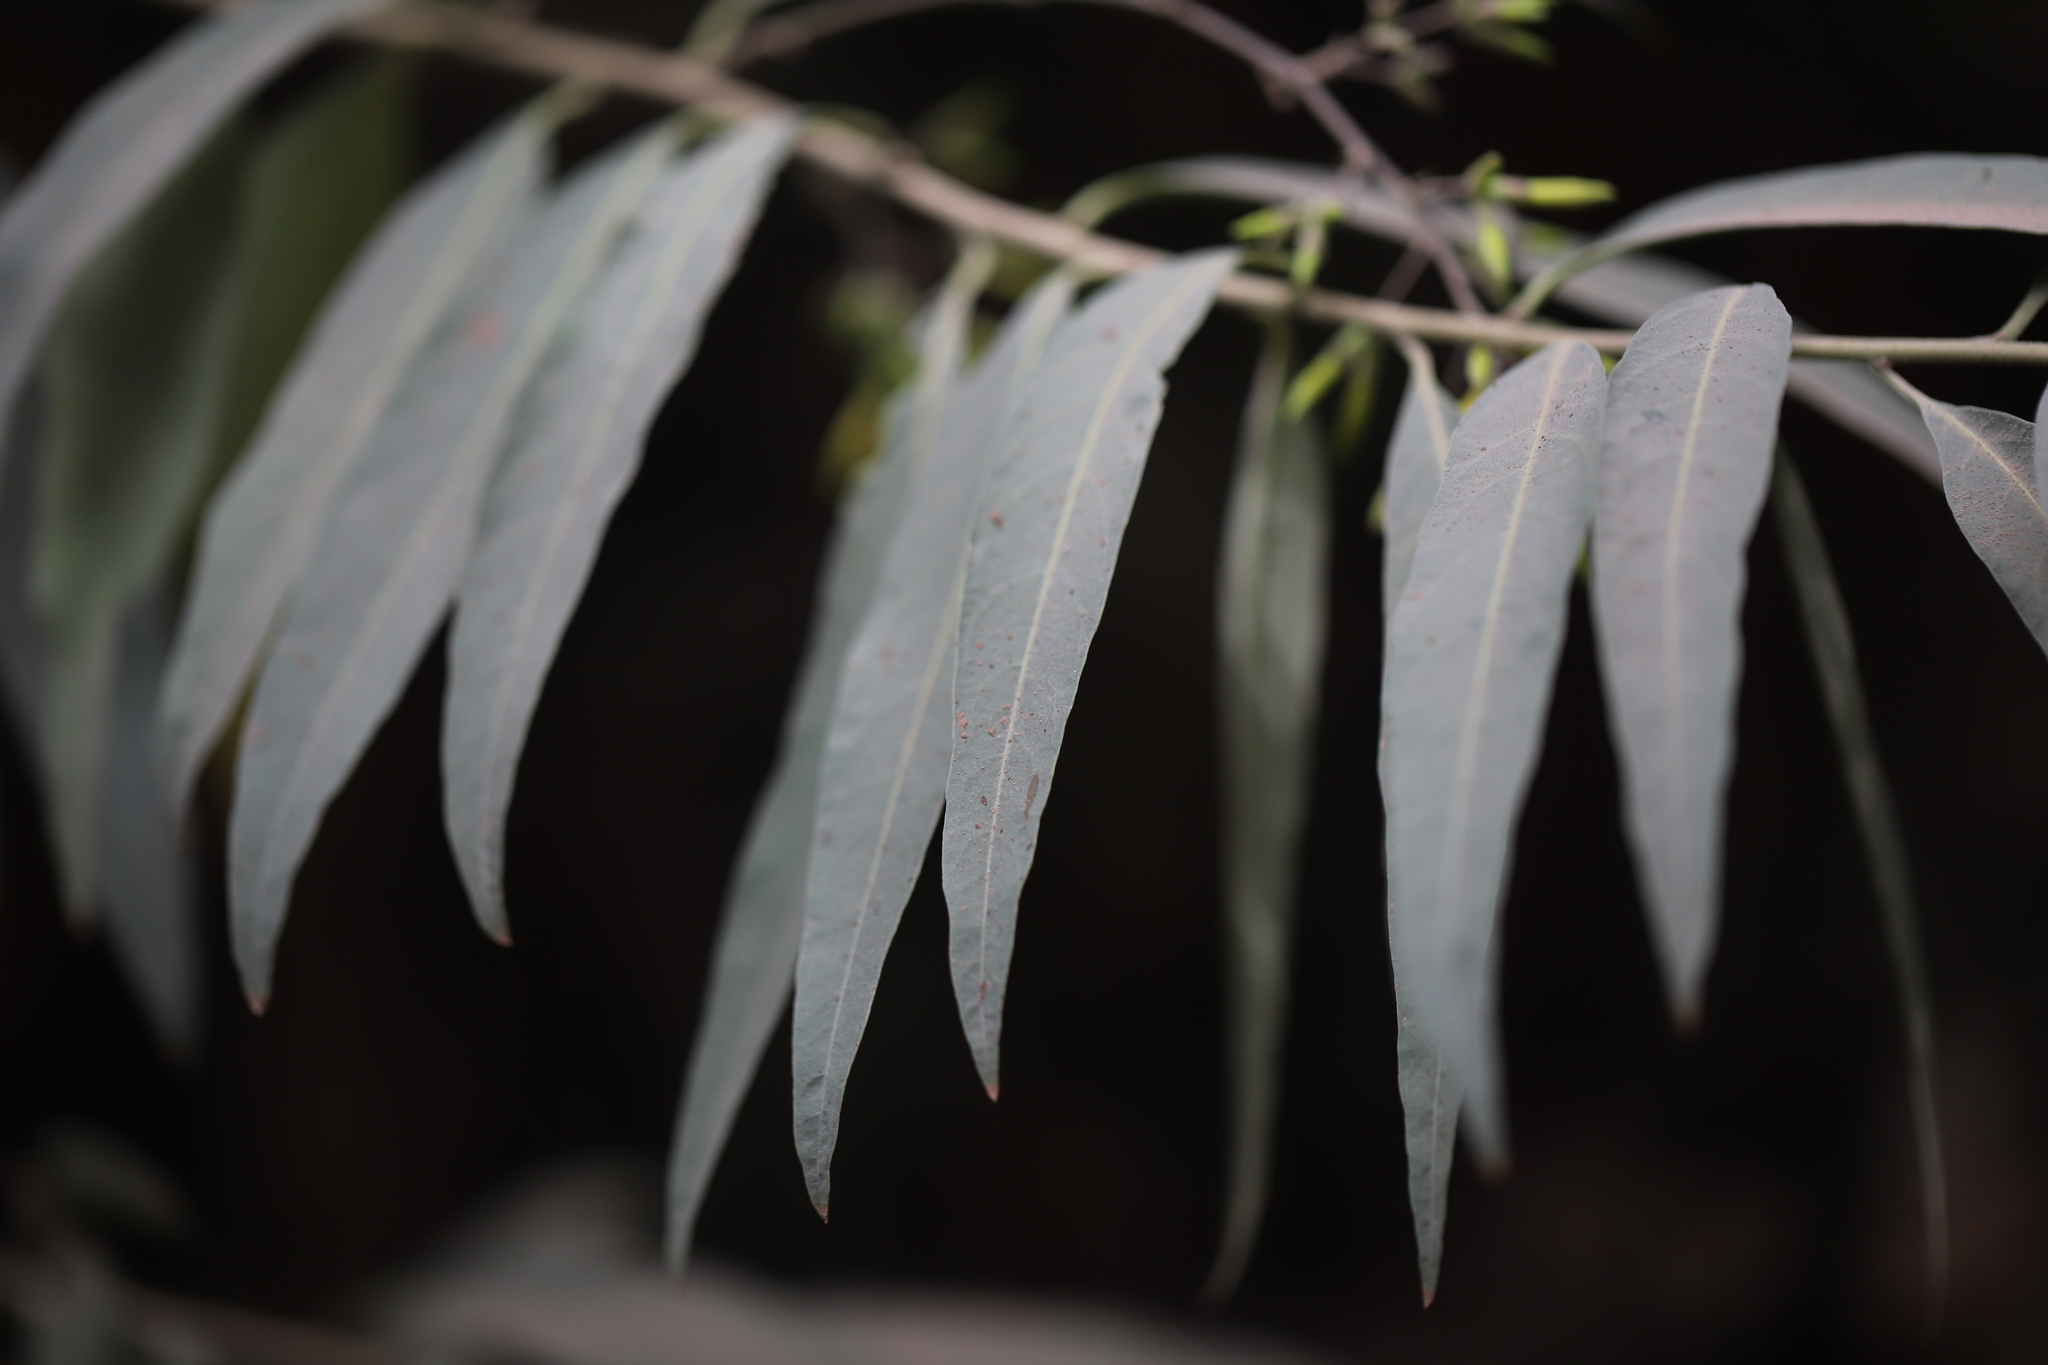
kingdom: Plantae
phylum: Tracheophyta
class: Magnoliopsida
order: Solanales
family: Solanaceae
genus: Cestrum
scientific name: Cestrum parqui
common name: Chilean cestrum
